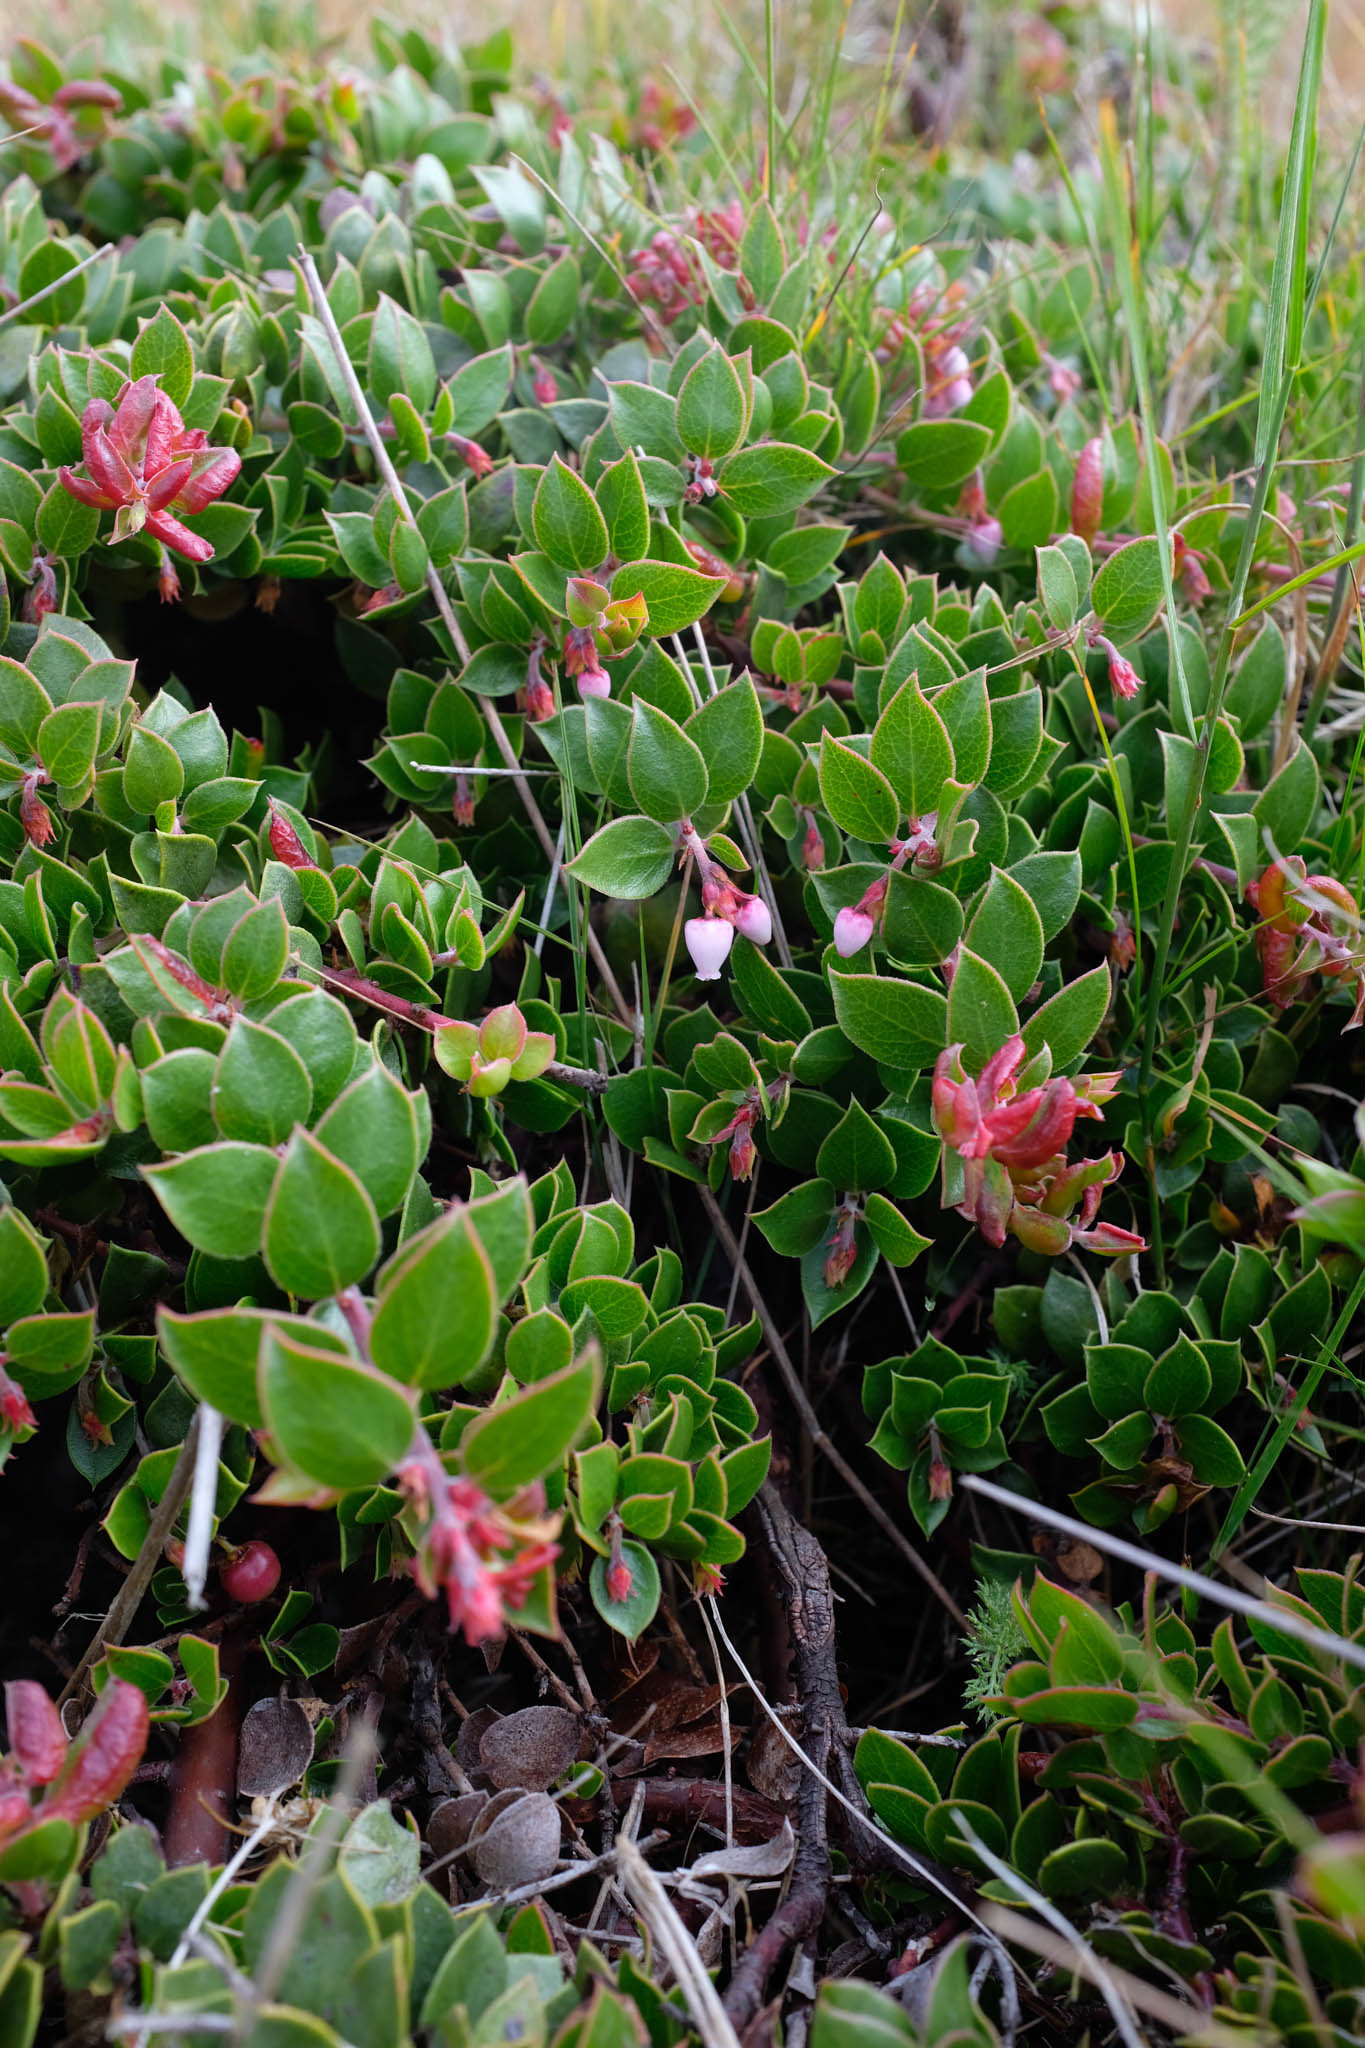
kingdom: Plantae
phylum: Tracheophyta
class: Magnoliopsida
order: Ericales
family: Ericaceae
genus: Arctostaphylos
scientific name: Arctostaphylos hookeri
